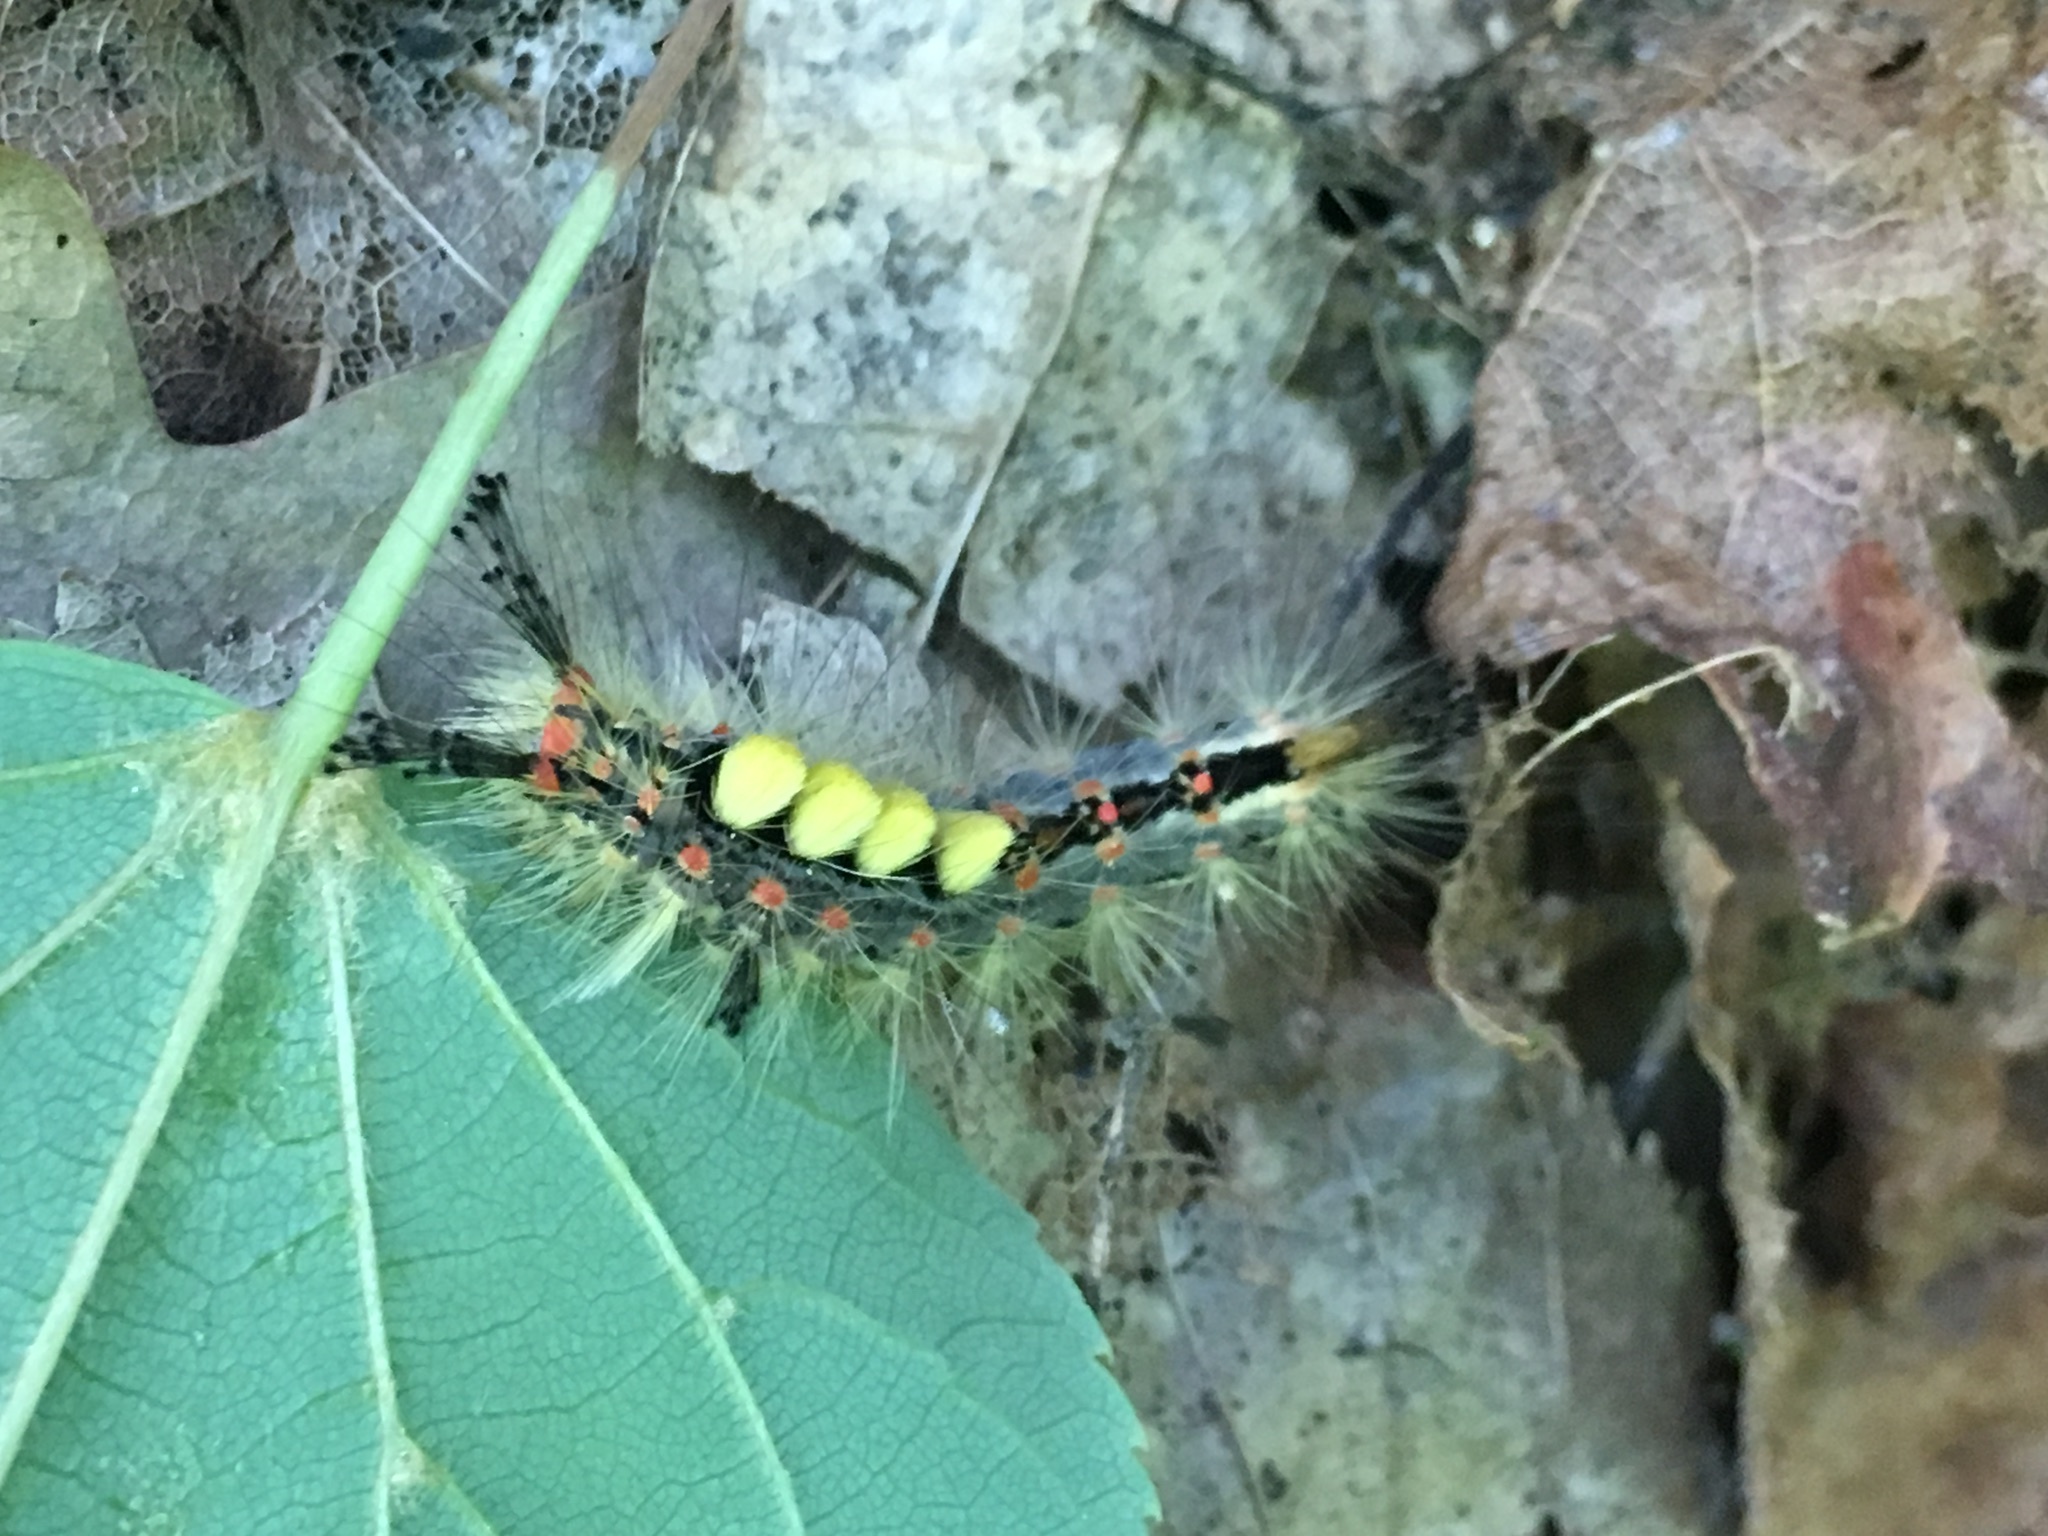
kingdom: Animalia
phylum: Arthropoda
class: Insecta
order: Lepidoptera
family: Erebidae
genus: Orgyia
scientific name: Orgyia antiqua
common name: Vapourer
